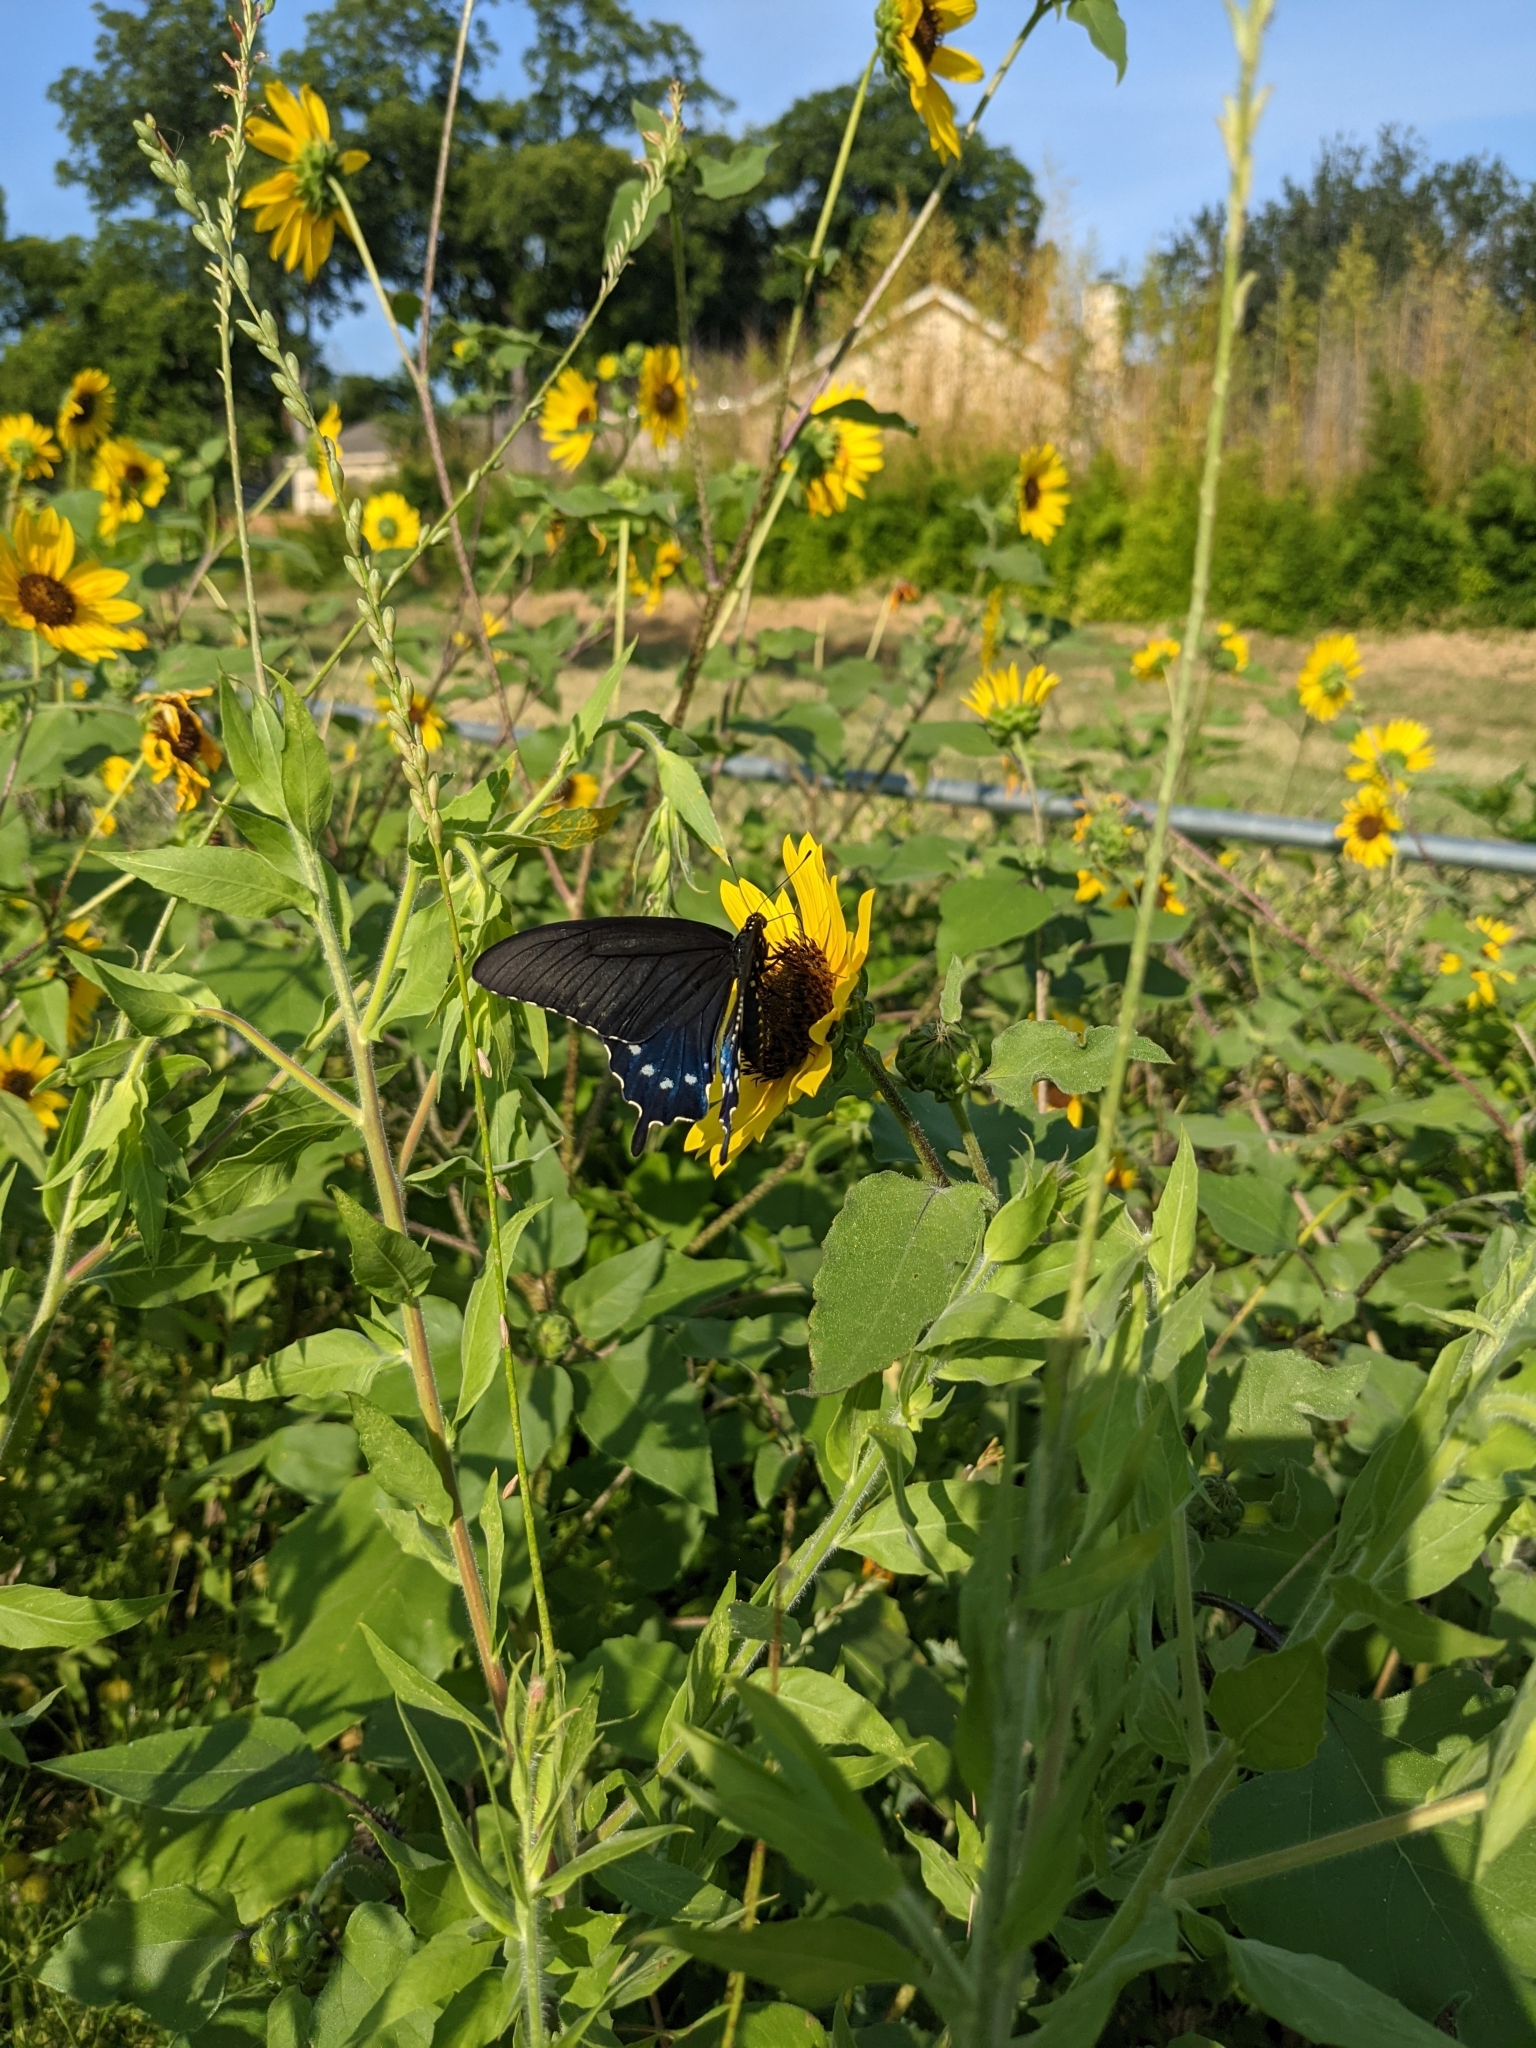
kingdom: Animalia
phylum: Arthropoda
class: Insecta
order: Lepidoptera
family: Papilionidae
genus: Battus
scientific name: Battus philenor
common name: Pipevine swallowtail
